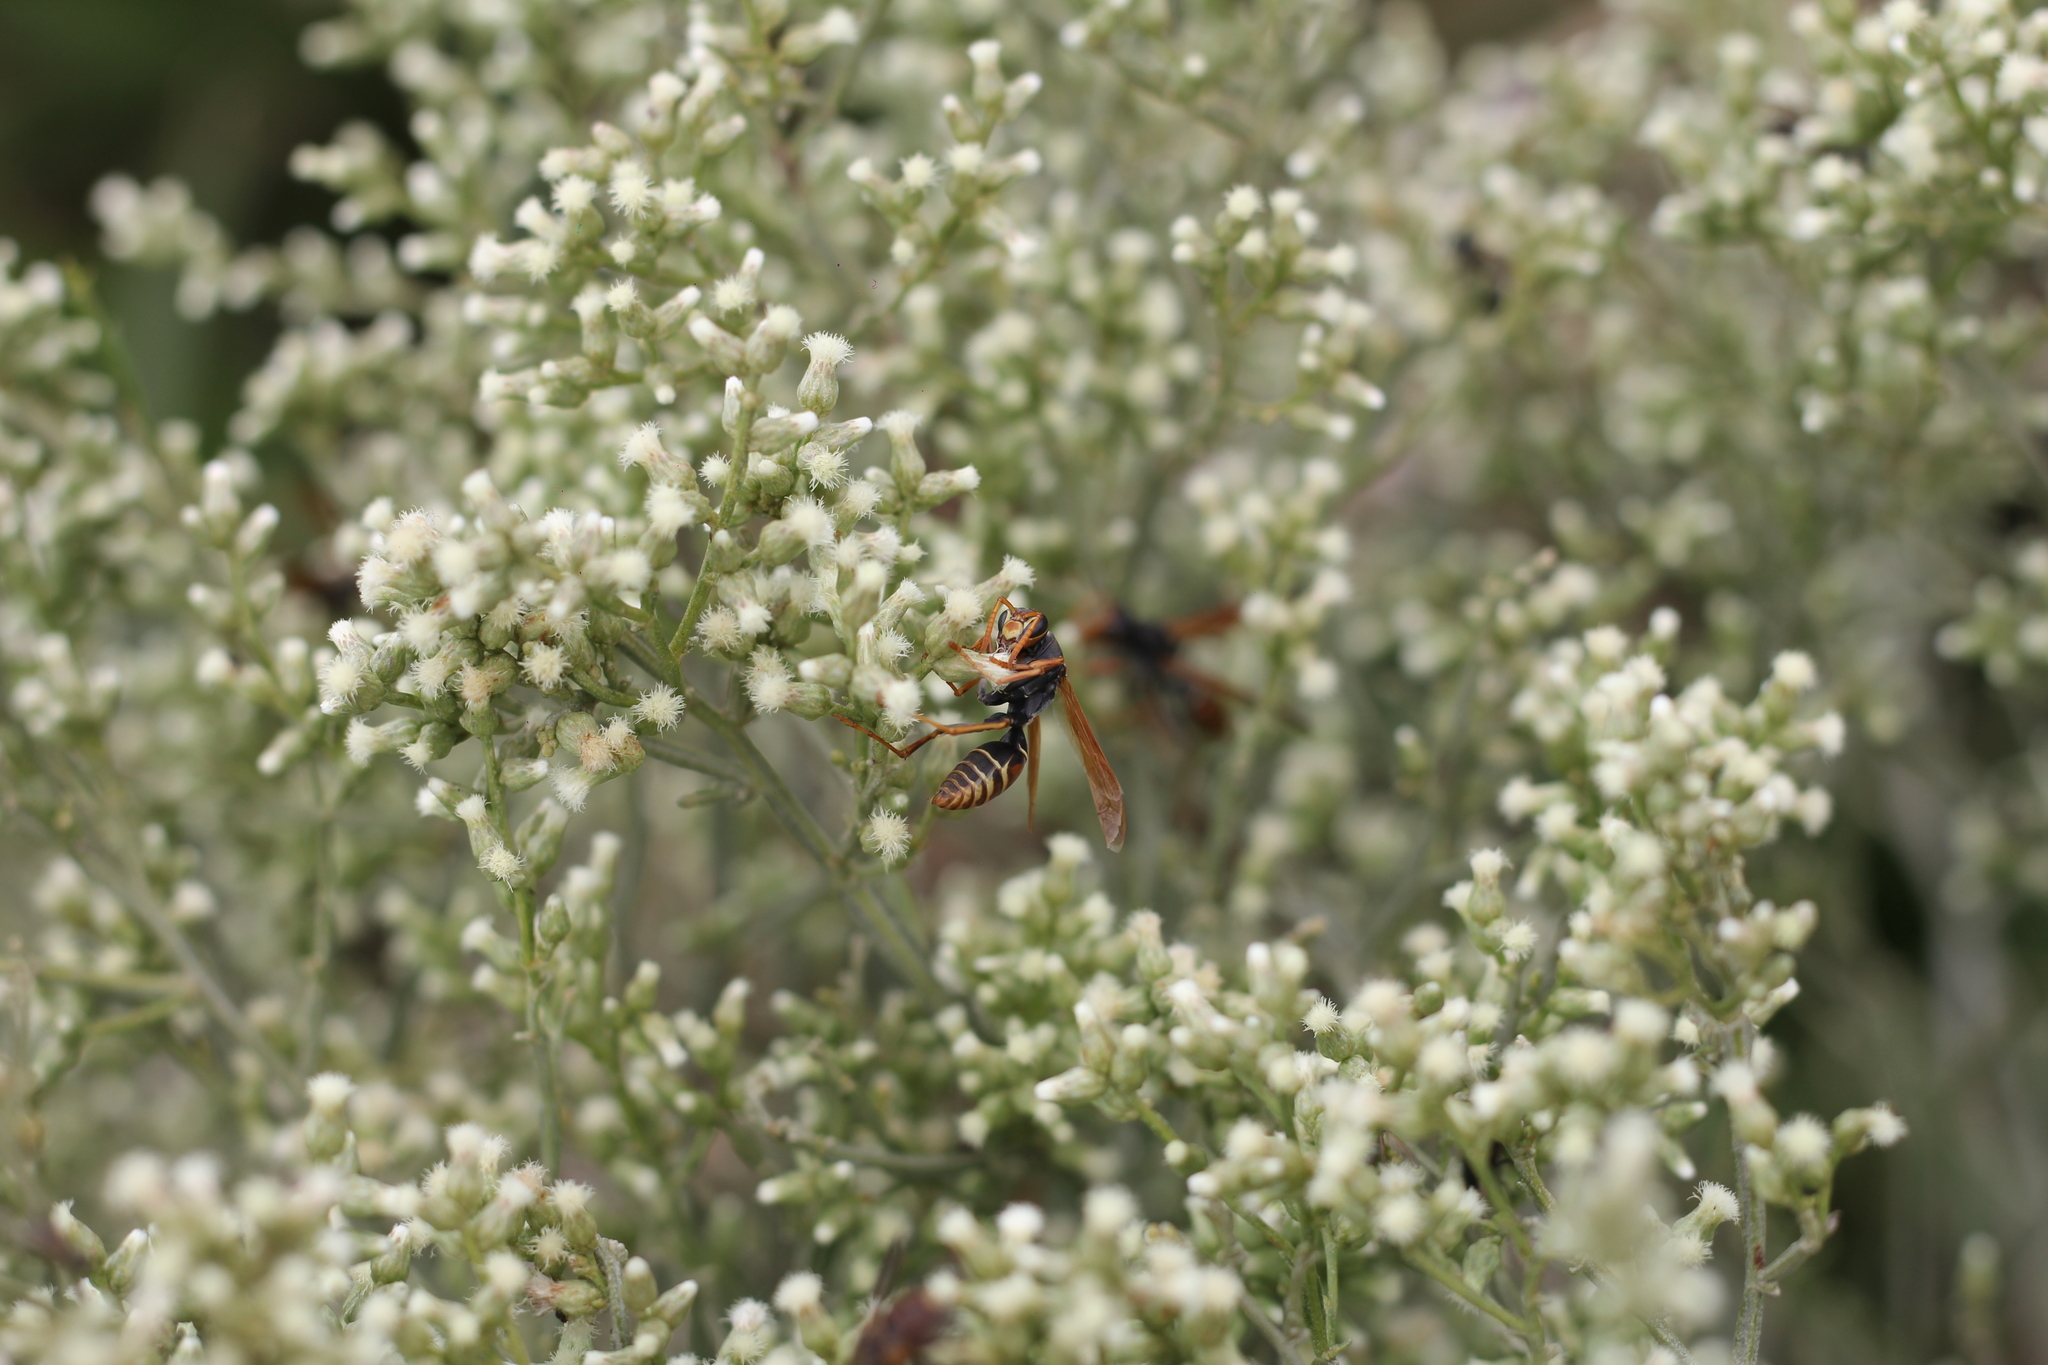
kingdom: Animalia
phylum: Arthropoda
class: Insecta
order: Hymenoptera
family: Eumenidae
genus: Polistes
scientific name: Polistes billardieri
